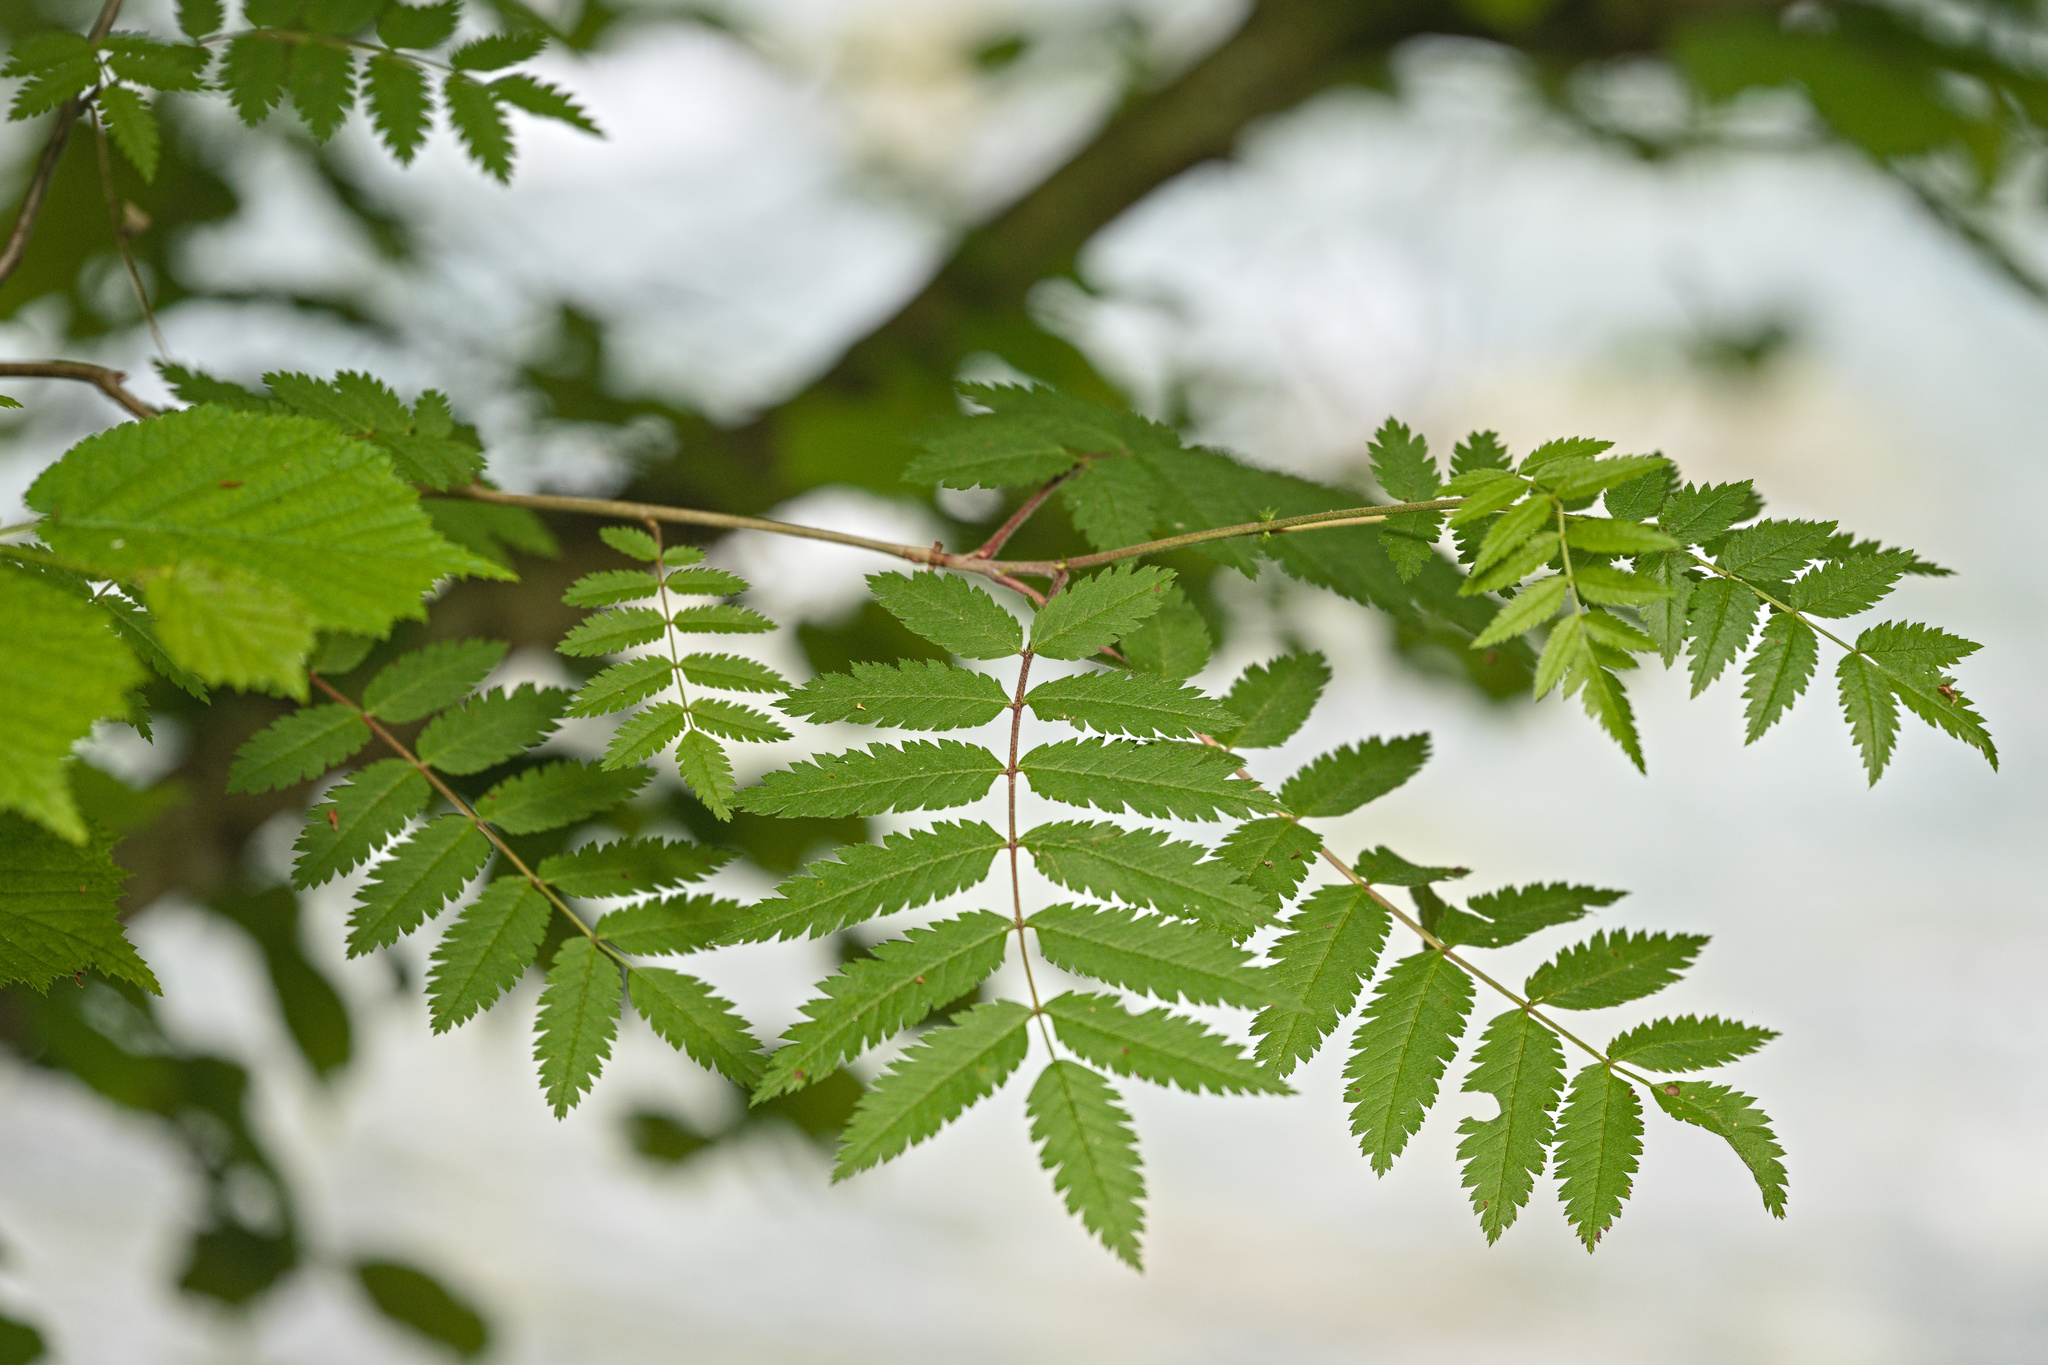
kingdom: Plantae
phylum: Tracheophyta
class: Magnoliopsida
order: Rosales
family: Rosaceae
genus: Sorbus
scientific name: Sorbus aucuparia
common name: Rowan
